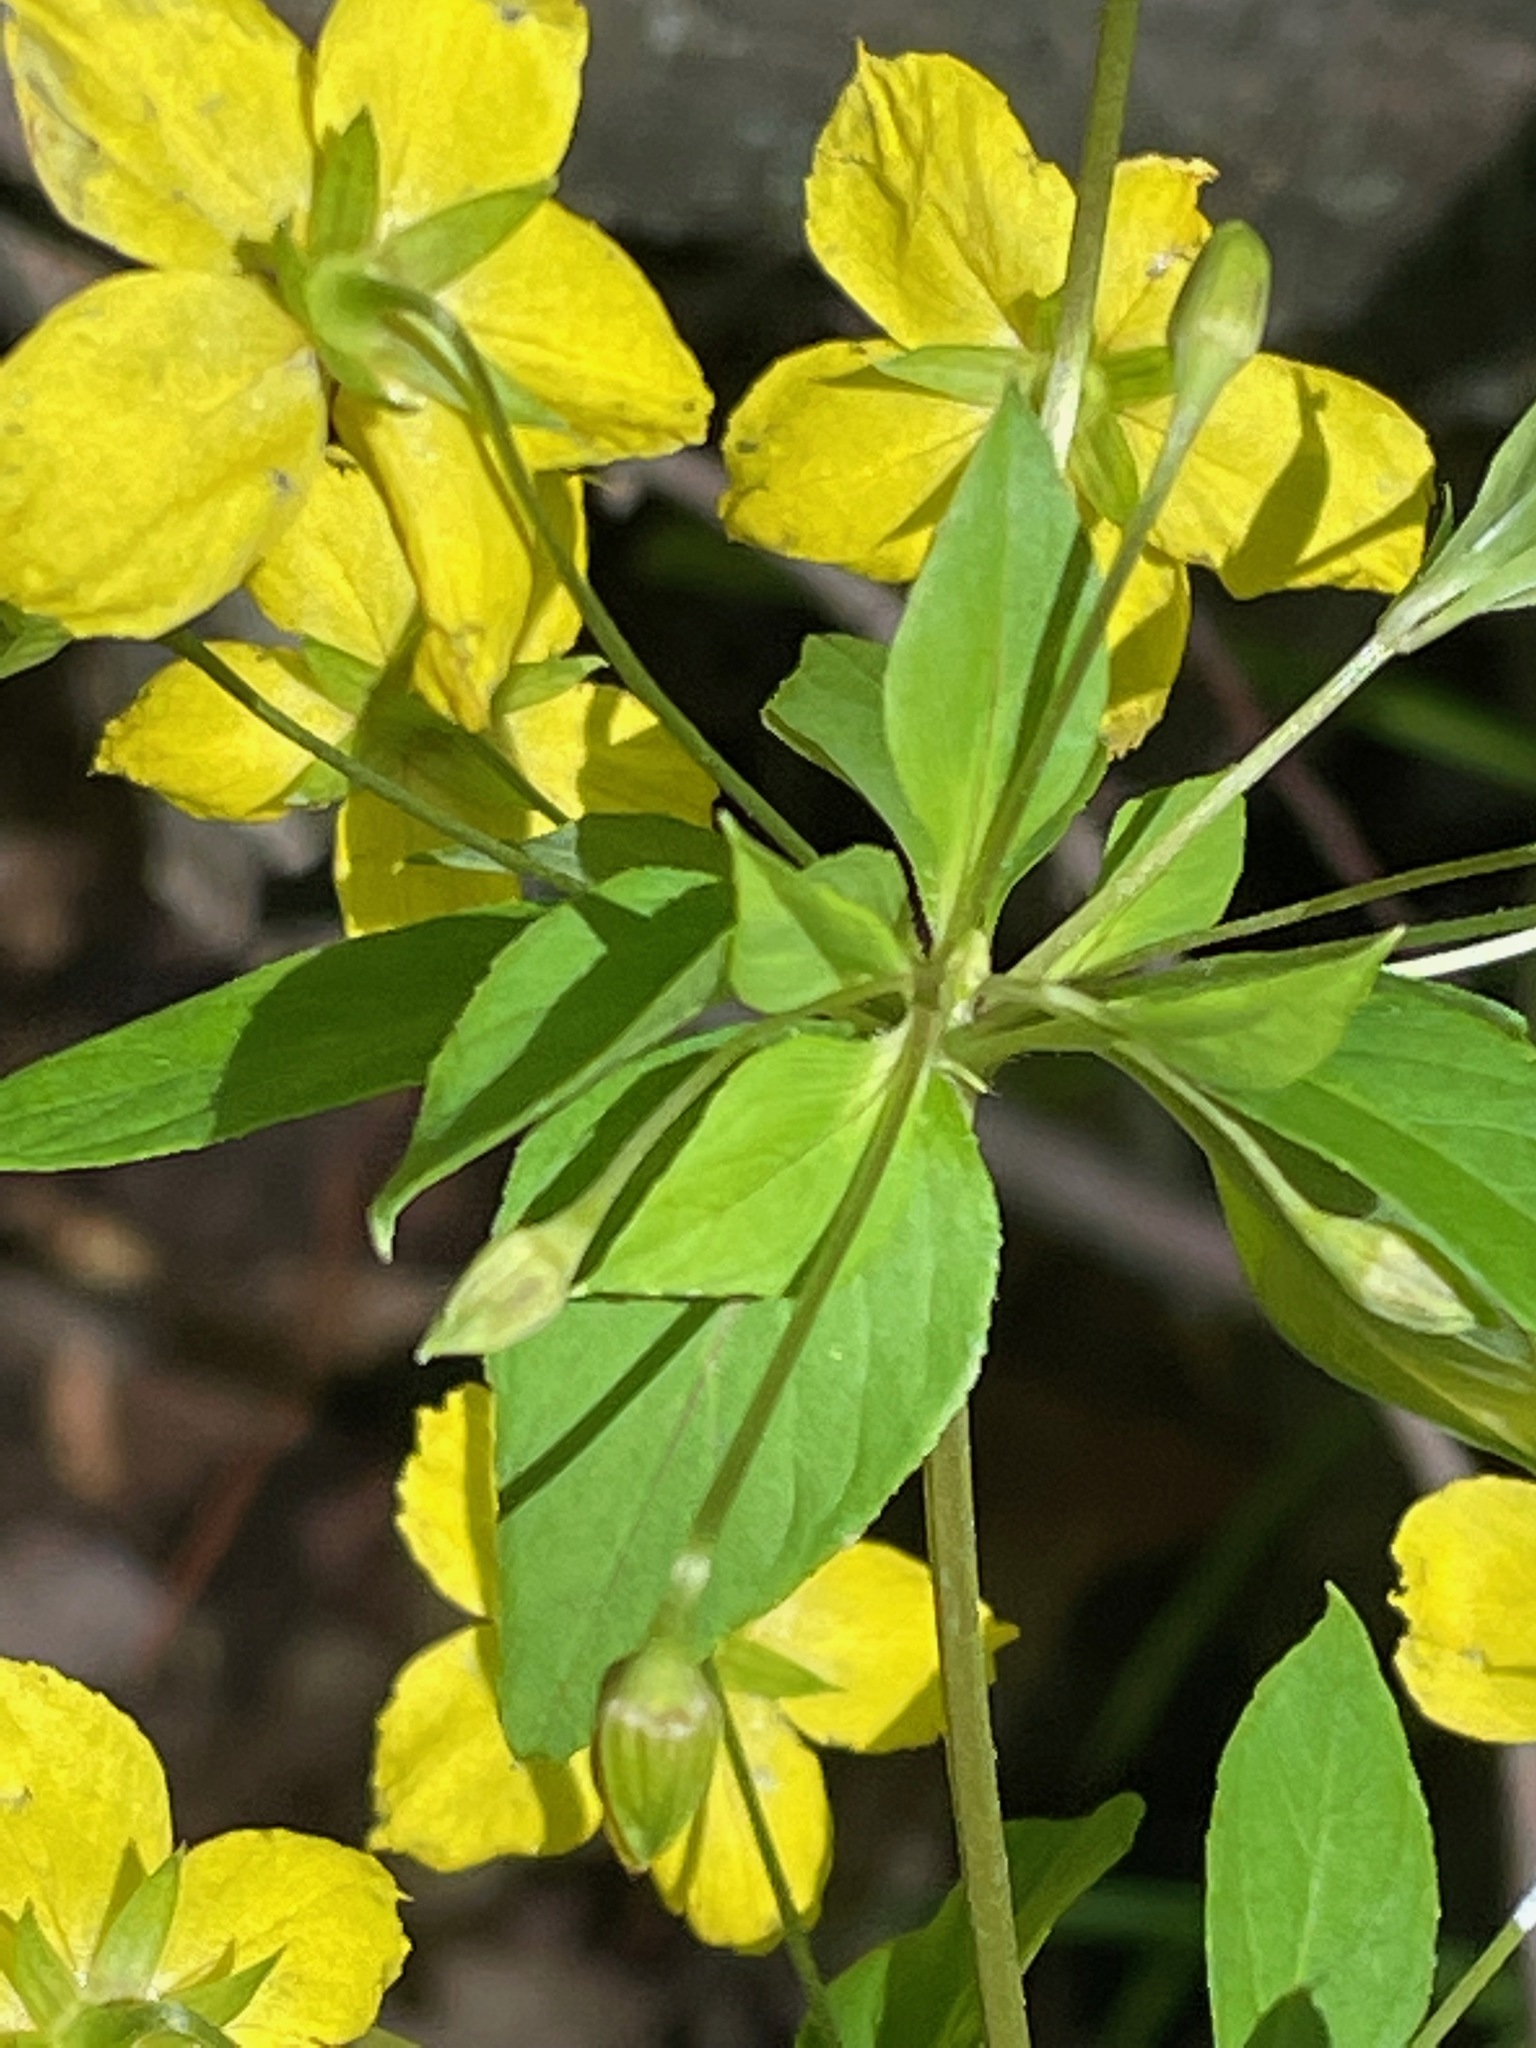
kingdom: Plantae
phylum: Tracheophyta
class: Magnoliopsida
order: Ericales
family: Primulaceae
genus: Lysimachia
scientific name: Lysimachia ciliata
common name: Fringed loosestrife
